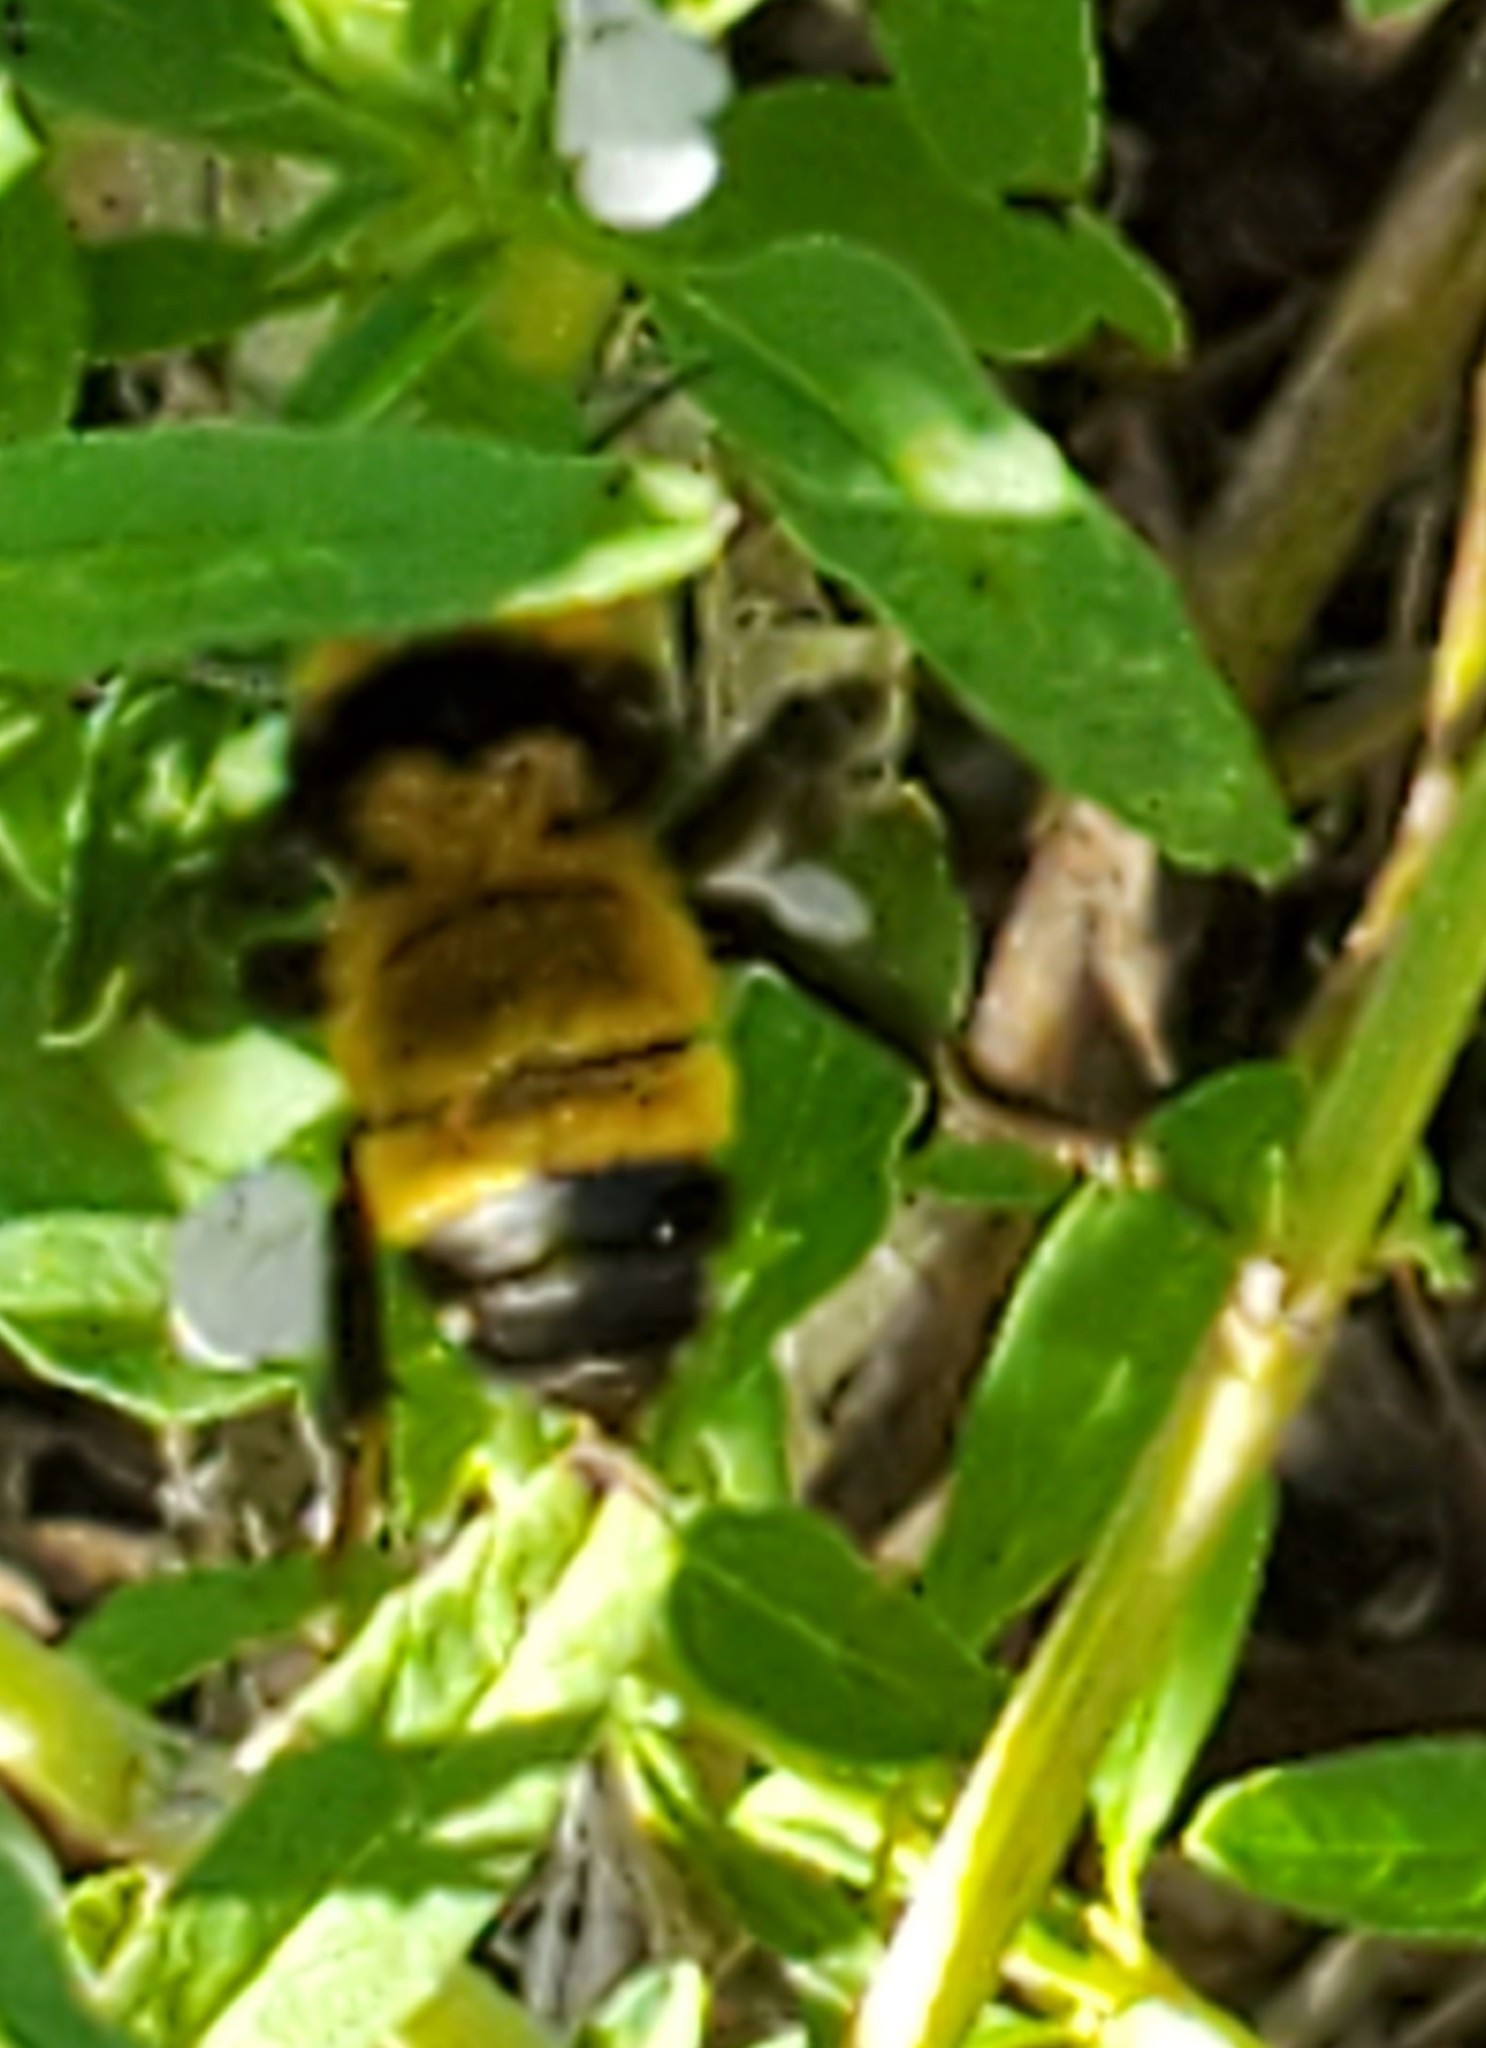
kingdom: Animalia
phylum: Arthropoda
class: Insecta
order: Hymenoptera
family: Apidae
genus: Bombus
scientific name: Bombus sonorus
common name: Sonoran bumble bee
